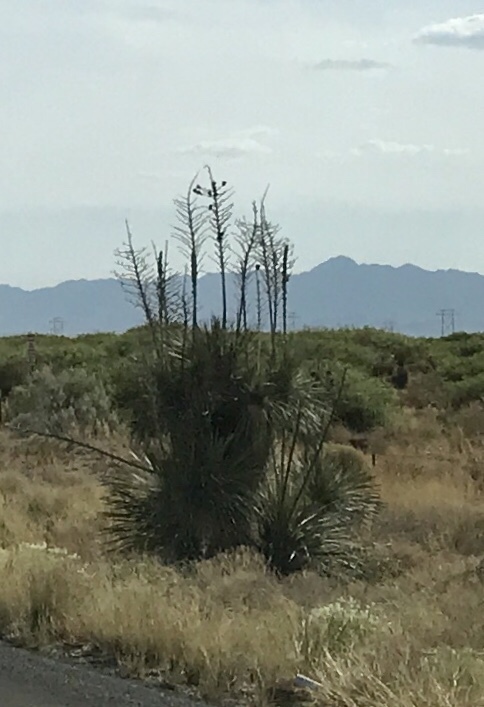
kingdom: Plantae
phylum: Tracheophyta
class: Liliopsida
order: Asparagales
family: Asparagaceae
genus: Yucca
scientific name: Yucca elata
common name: Palmella
